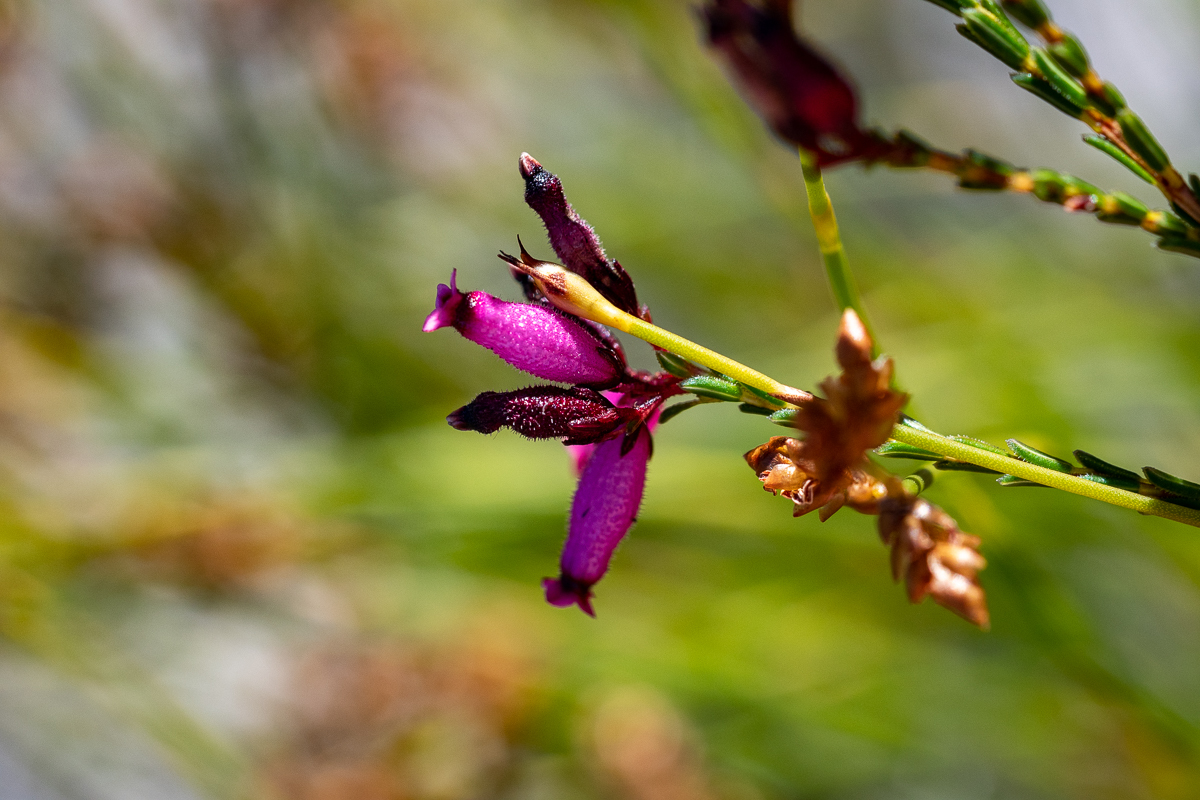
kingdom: Plantae
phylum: Tracheophyta
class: Magnoliopsida
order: Ericales
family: Ericaceae
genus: Erica
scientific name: Erica cristata
